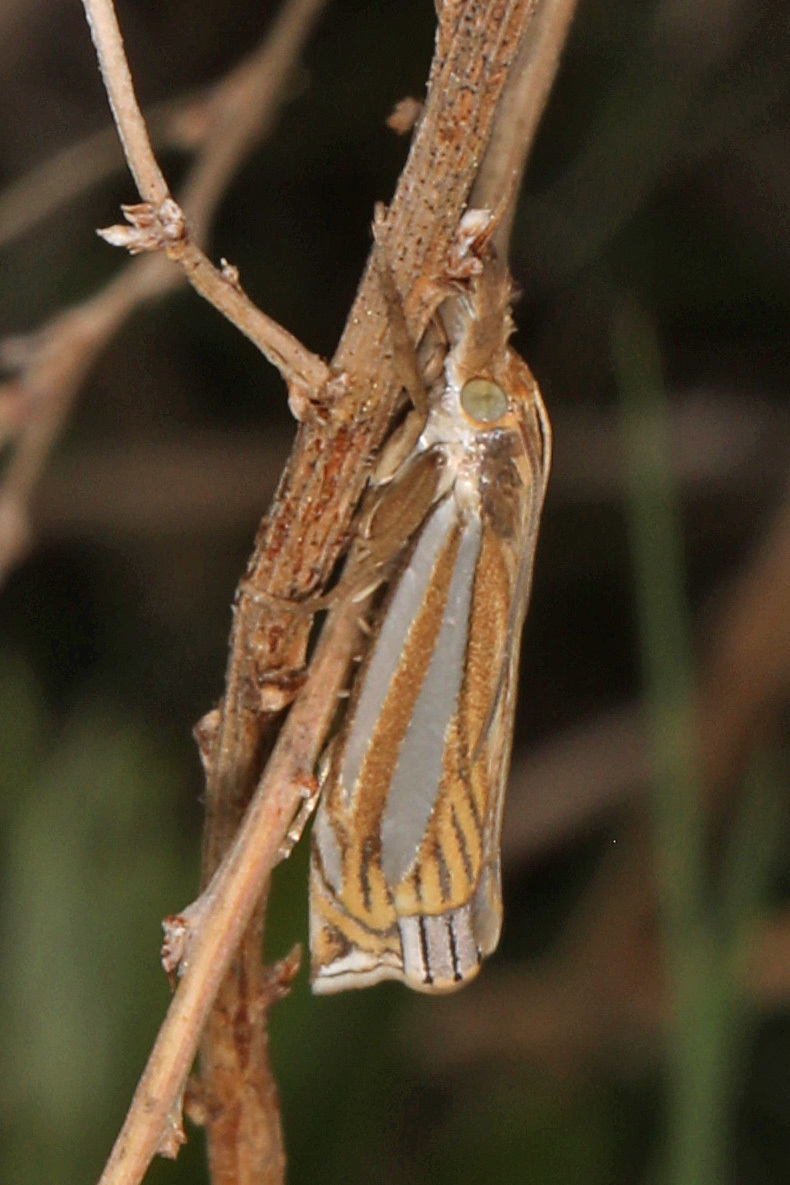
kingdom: Animalia
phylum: Arthropoda
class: Insecta
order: Lepidoptera
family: Crambidae
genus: Crambus
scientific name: Crambus laqueatellus
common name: Eastern grass-veneer
